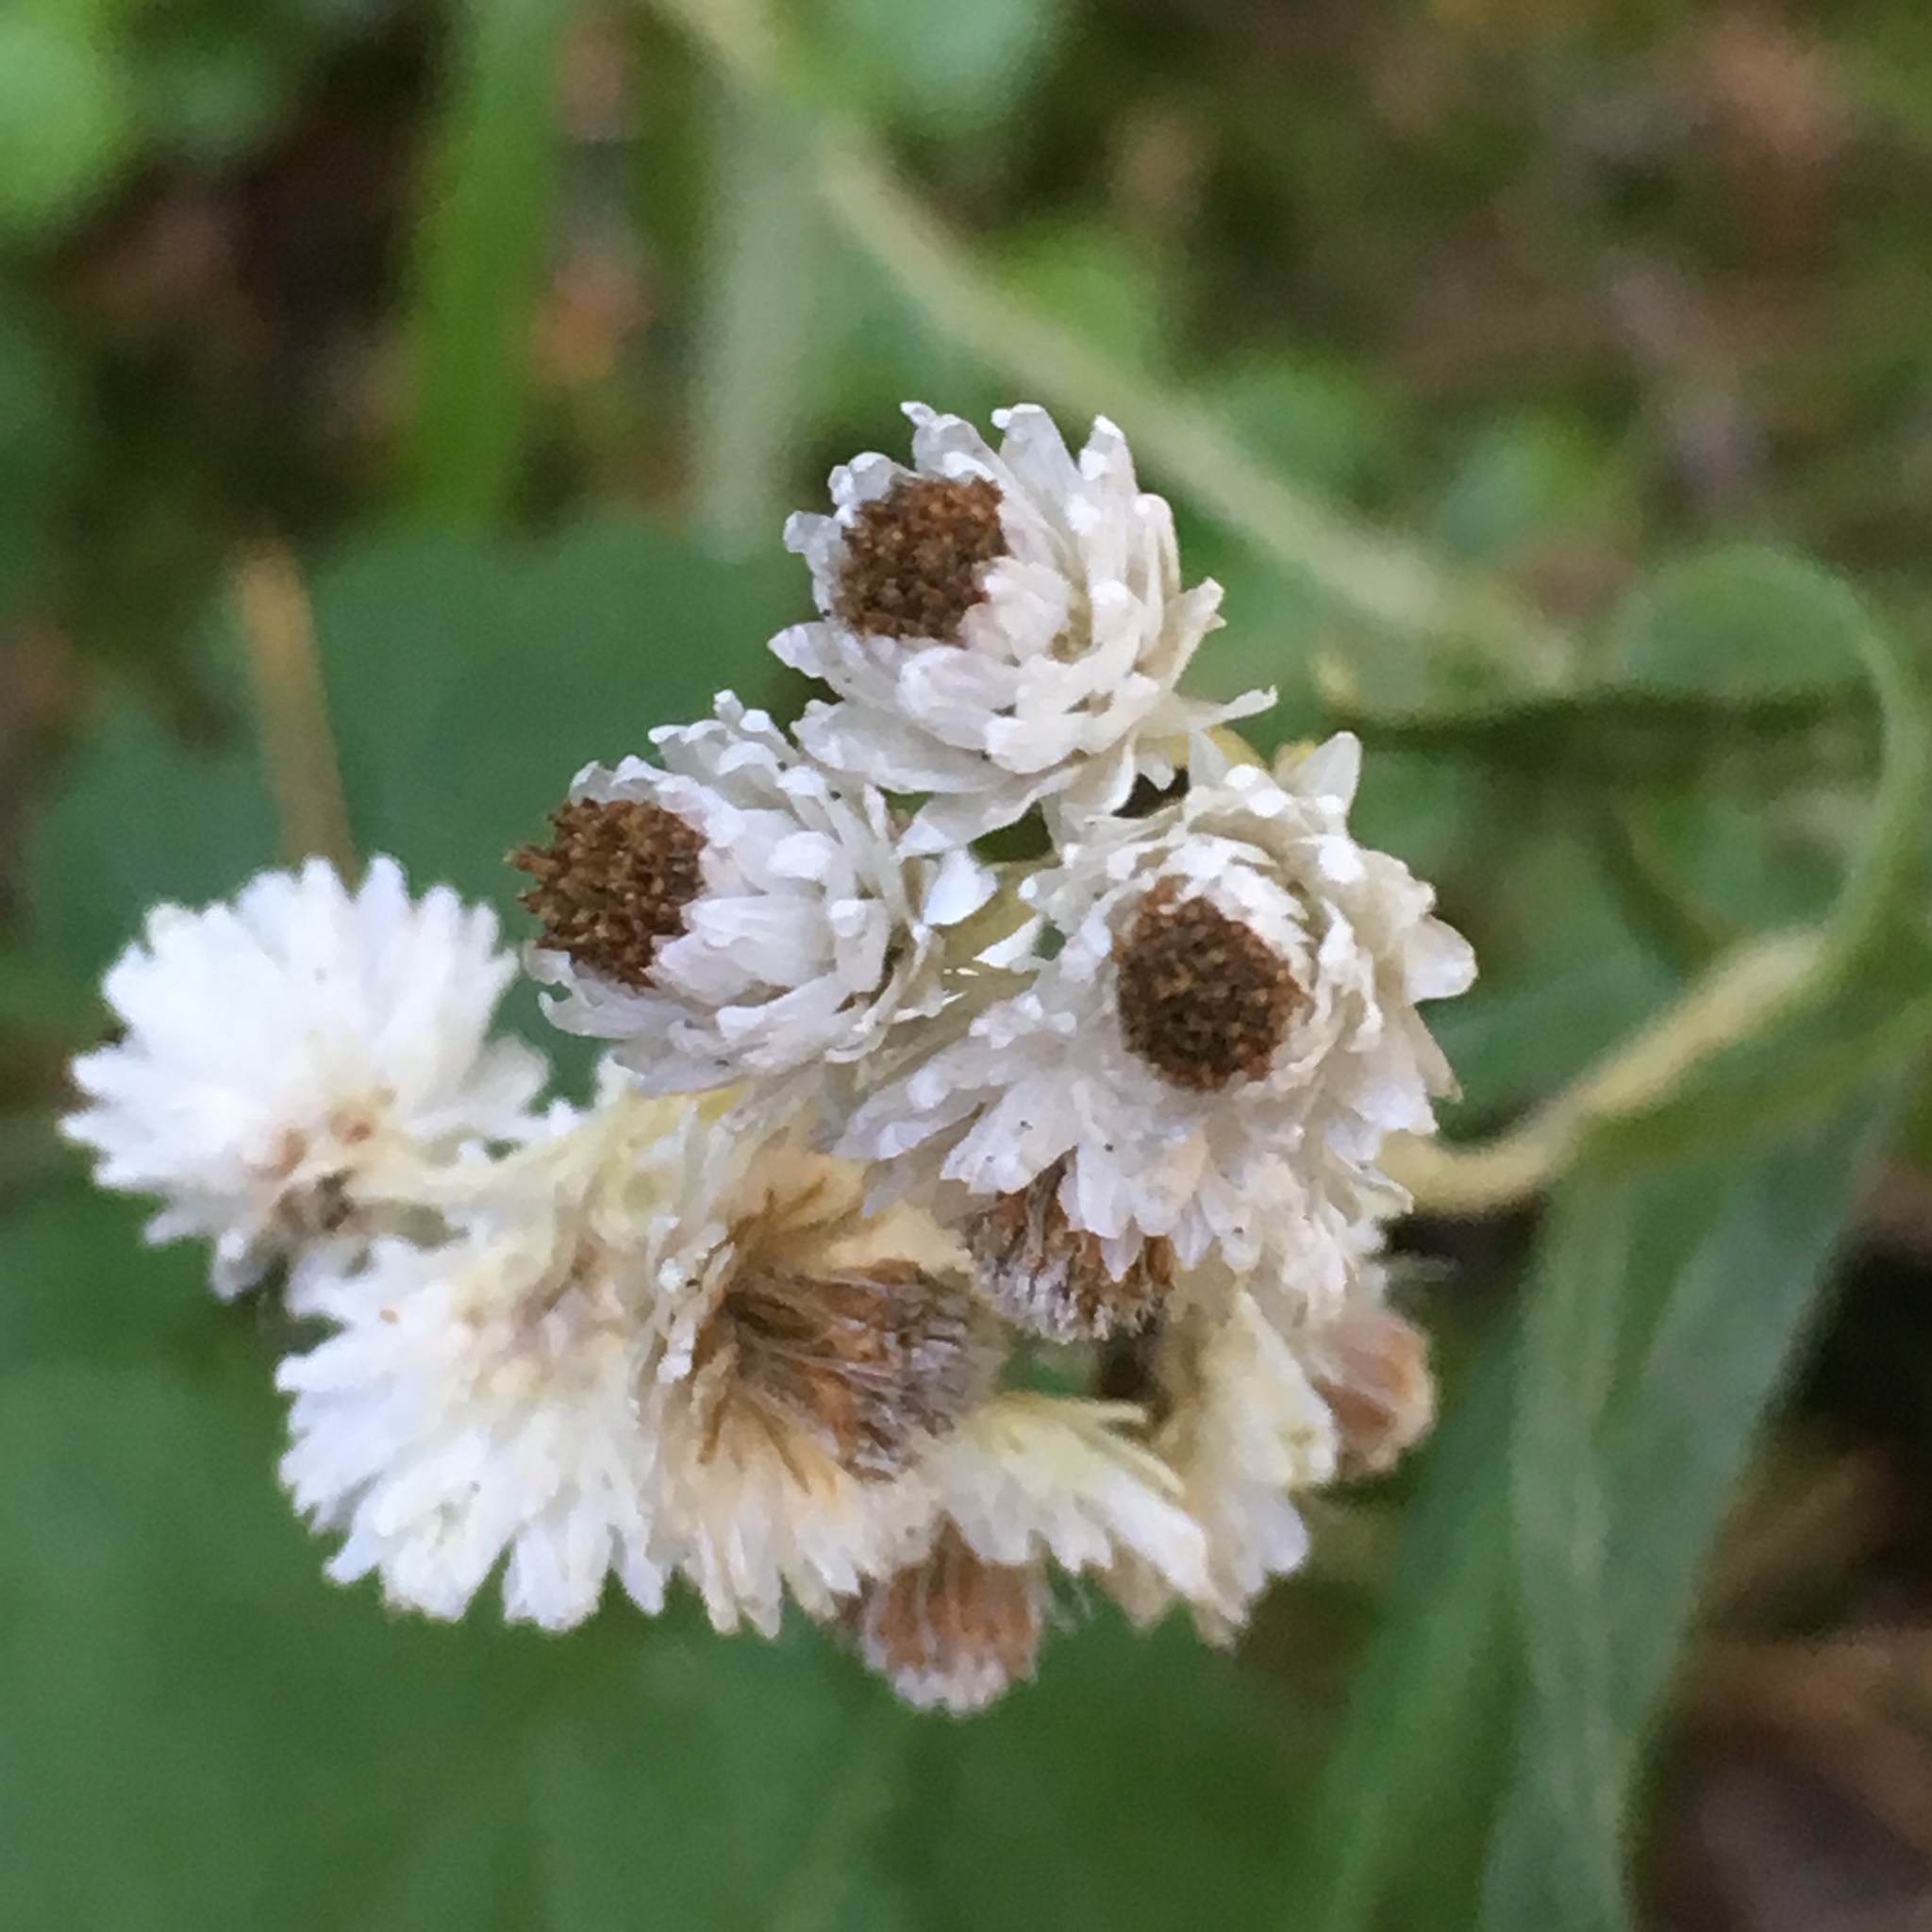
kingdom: Plantae
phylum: Tracheophyta
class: Magnoliopsida
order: Asterales
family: Asteraceae
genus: Anaphalis
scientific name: Anaphalis margaritacea
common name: Pearly everlasting
